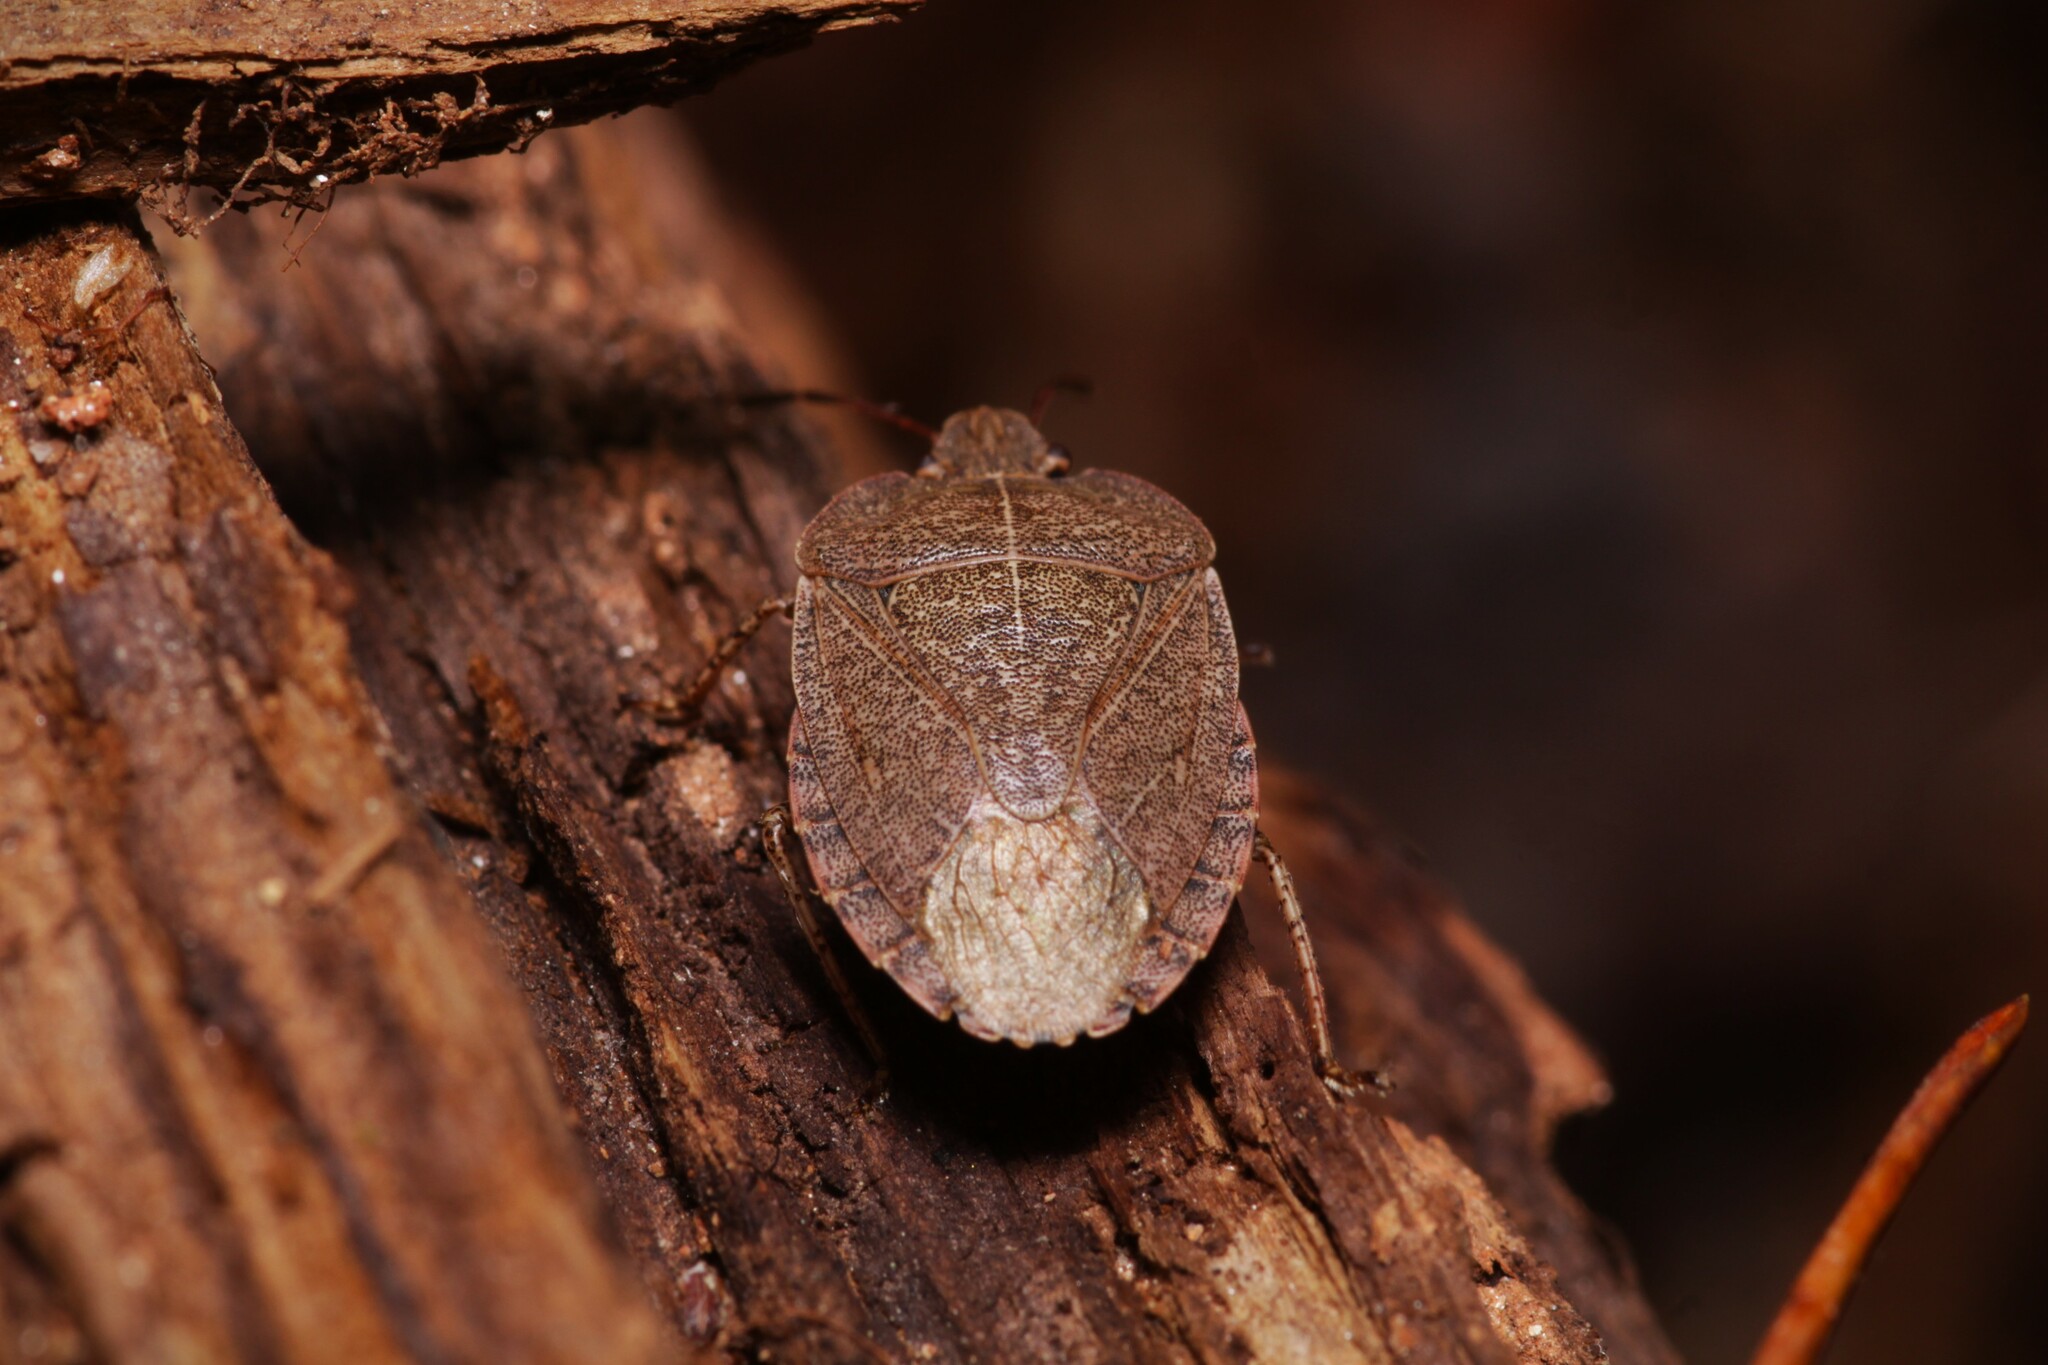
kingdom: Animalia
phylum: Arthropoda
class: Insecta
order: Hemiptera
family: Pentatomidae
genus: Menecles
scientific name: Menecles insertus
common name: Elf shoe stink bug
